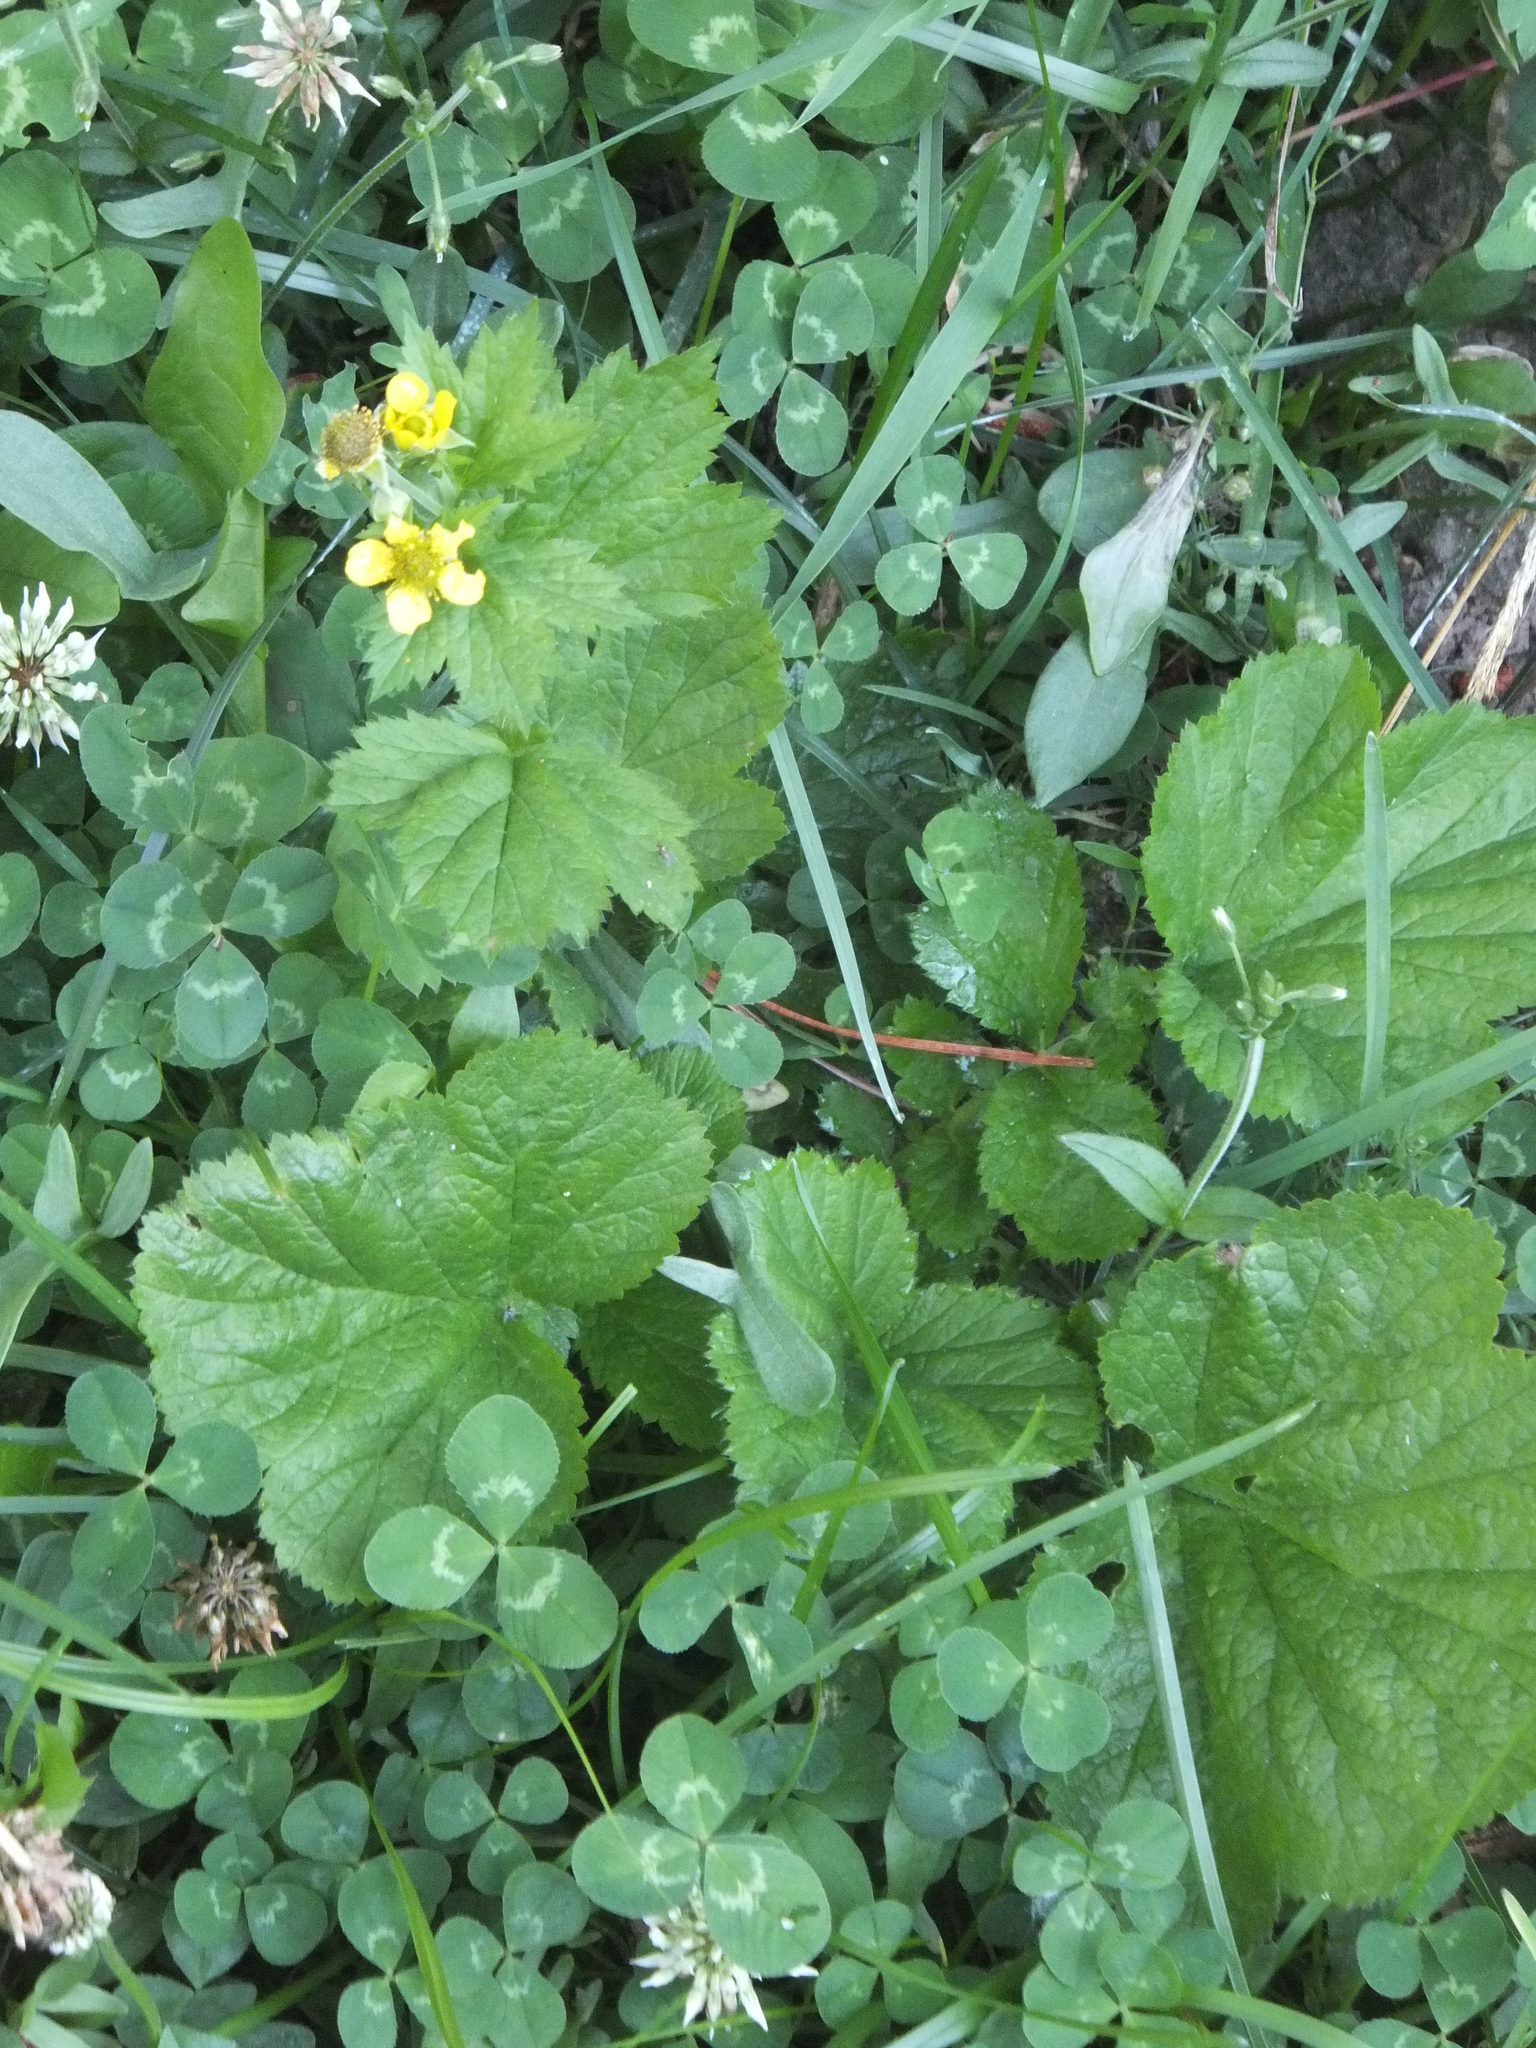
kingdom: Plantae
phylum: Tracheophyta
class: Magnoliopsida
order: Rosales
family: Rosaceae
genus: Geum
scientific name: Geum macrophyllum
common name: Large-leaved avens
